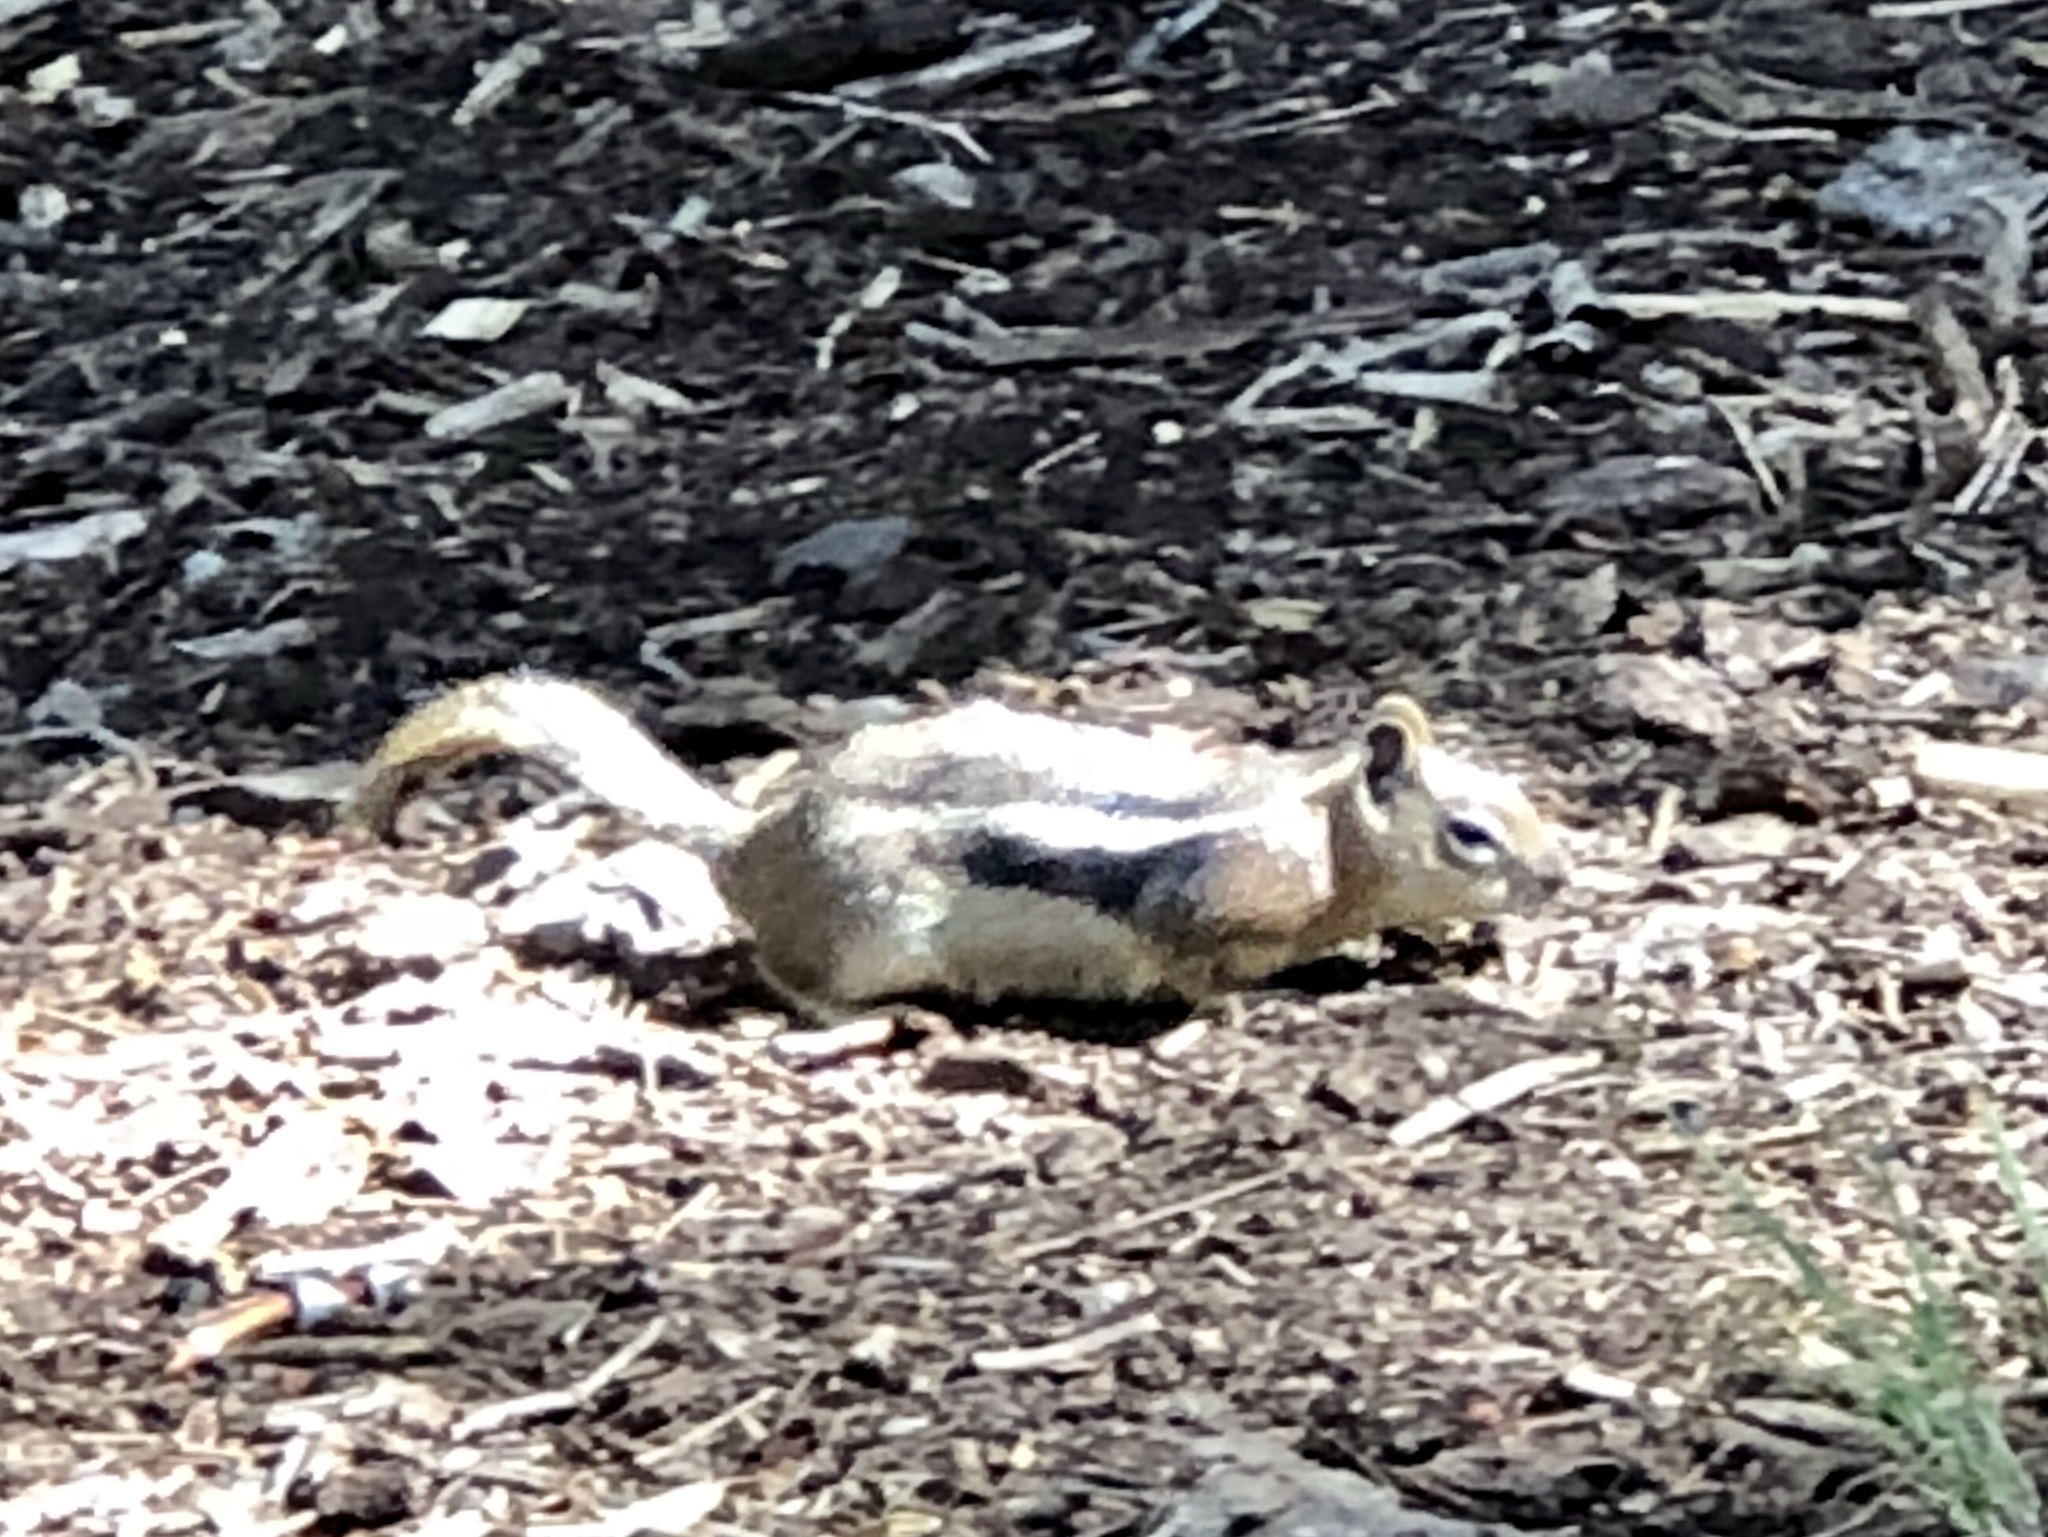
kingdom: Animalia
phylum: Chordata
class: Mammalia
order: Rodentia
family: Sciuridae
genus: Callospermophilus
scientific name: Callospermophilus lateralis
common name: Golden-mantled ground squirrel
